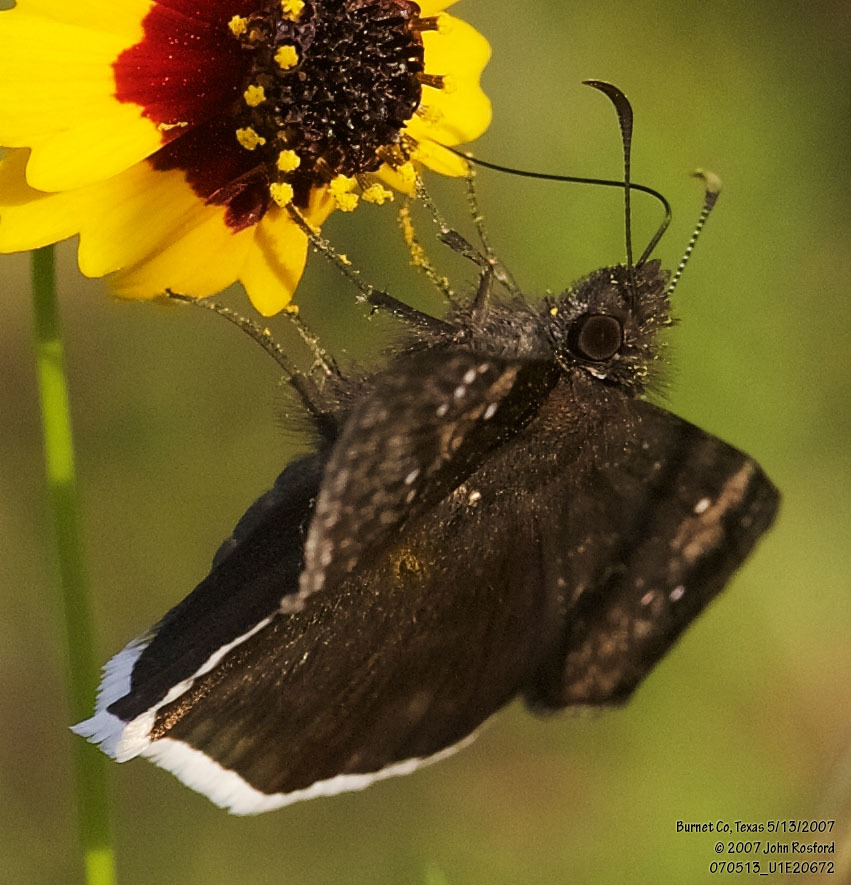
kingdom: Animalia
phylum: Arthropoda
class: Insecta
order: Lepidoptera
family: Hesperiidae
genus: Erynnis
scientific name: Erynnis funeralis
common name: Funereal duskywing
